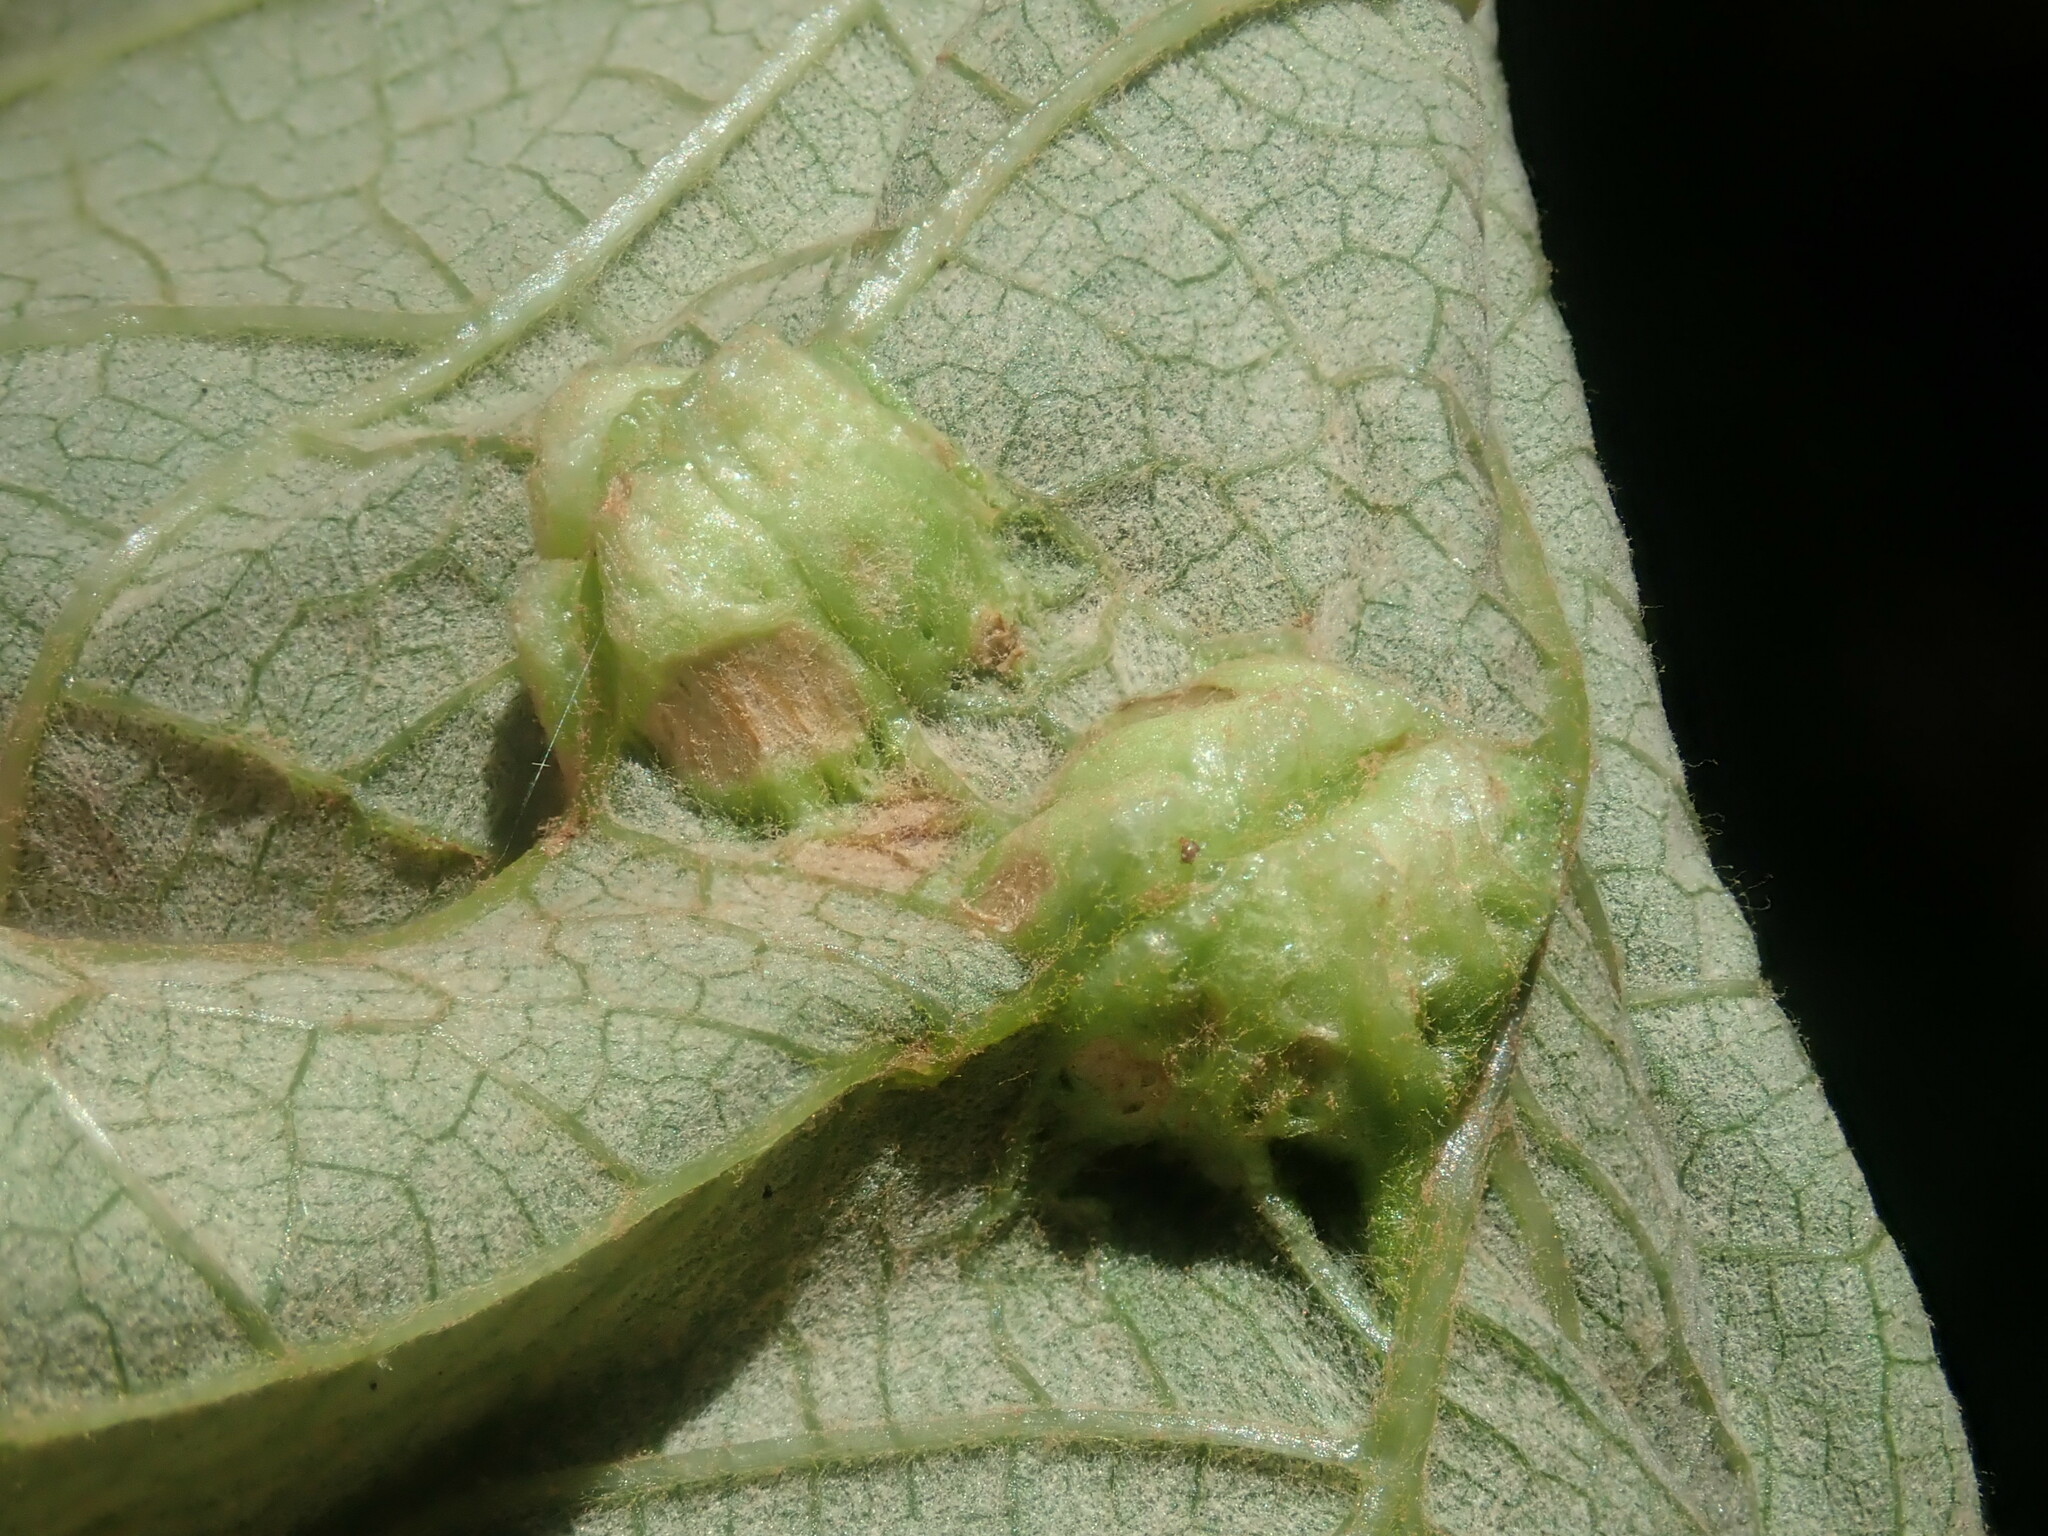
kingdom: Animalia
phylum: Arthropoda
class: Insecta
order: Hemiptera
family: Phylloxeridae
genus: Daktulosphaira
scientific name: Daktulosphaira vitifoliae
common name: Grape phylloxera
